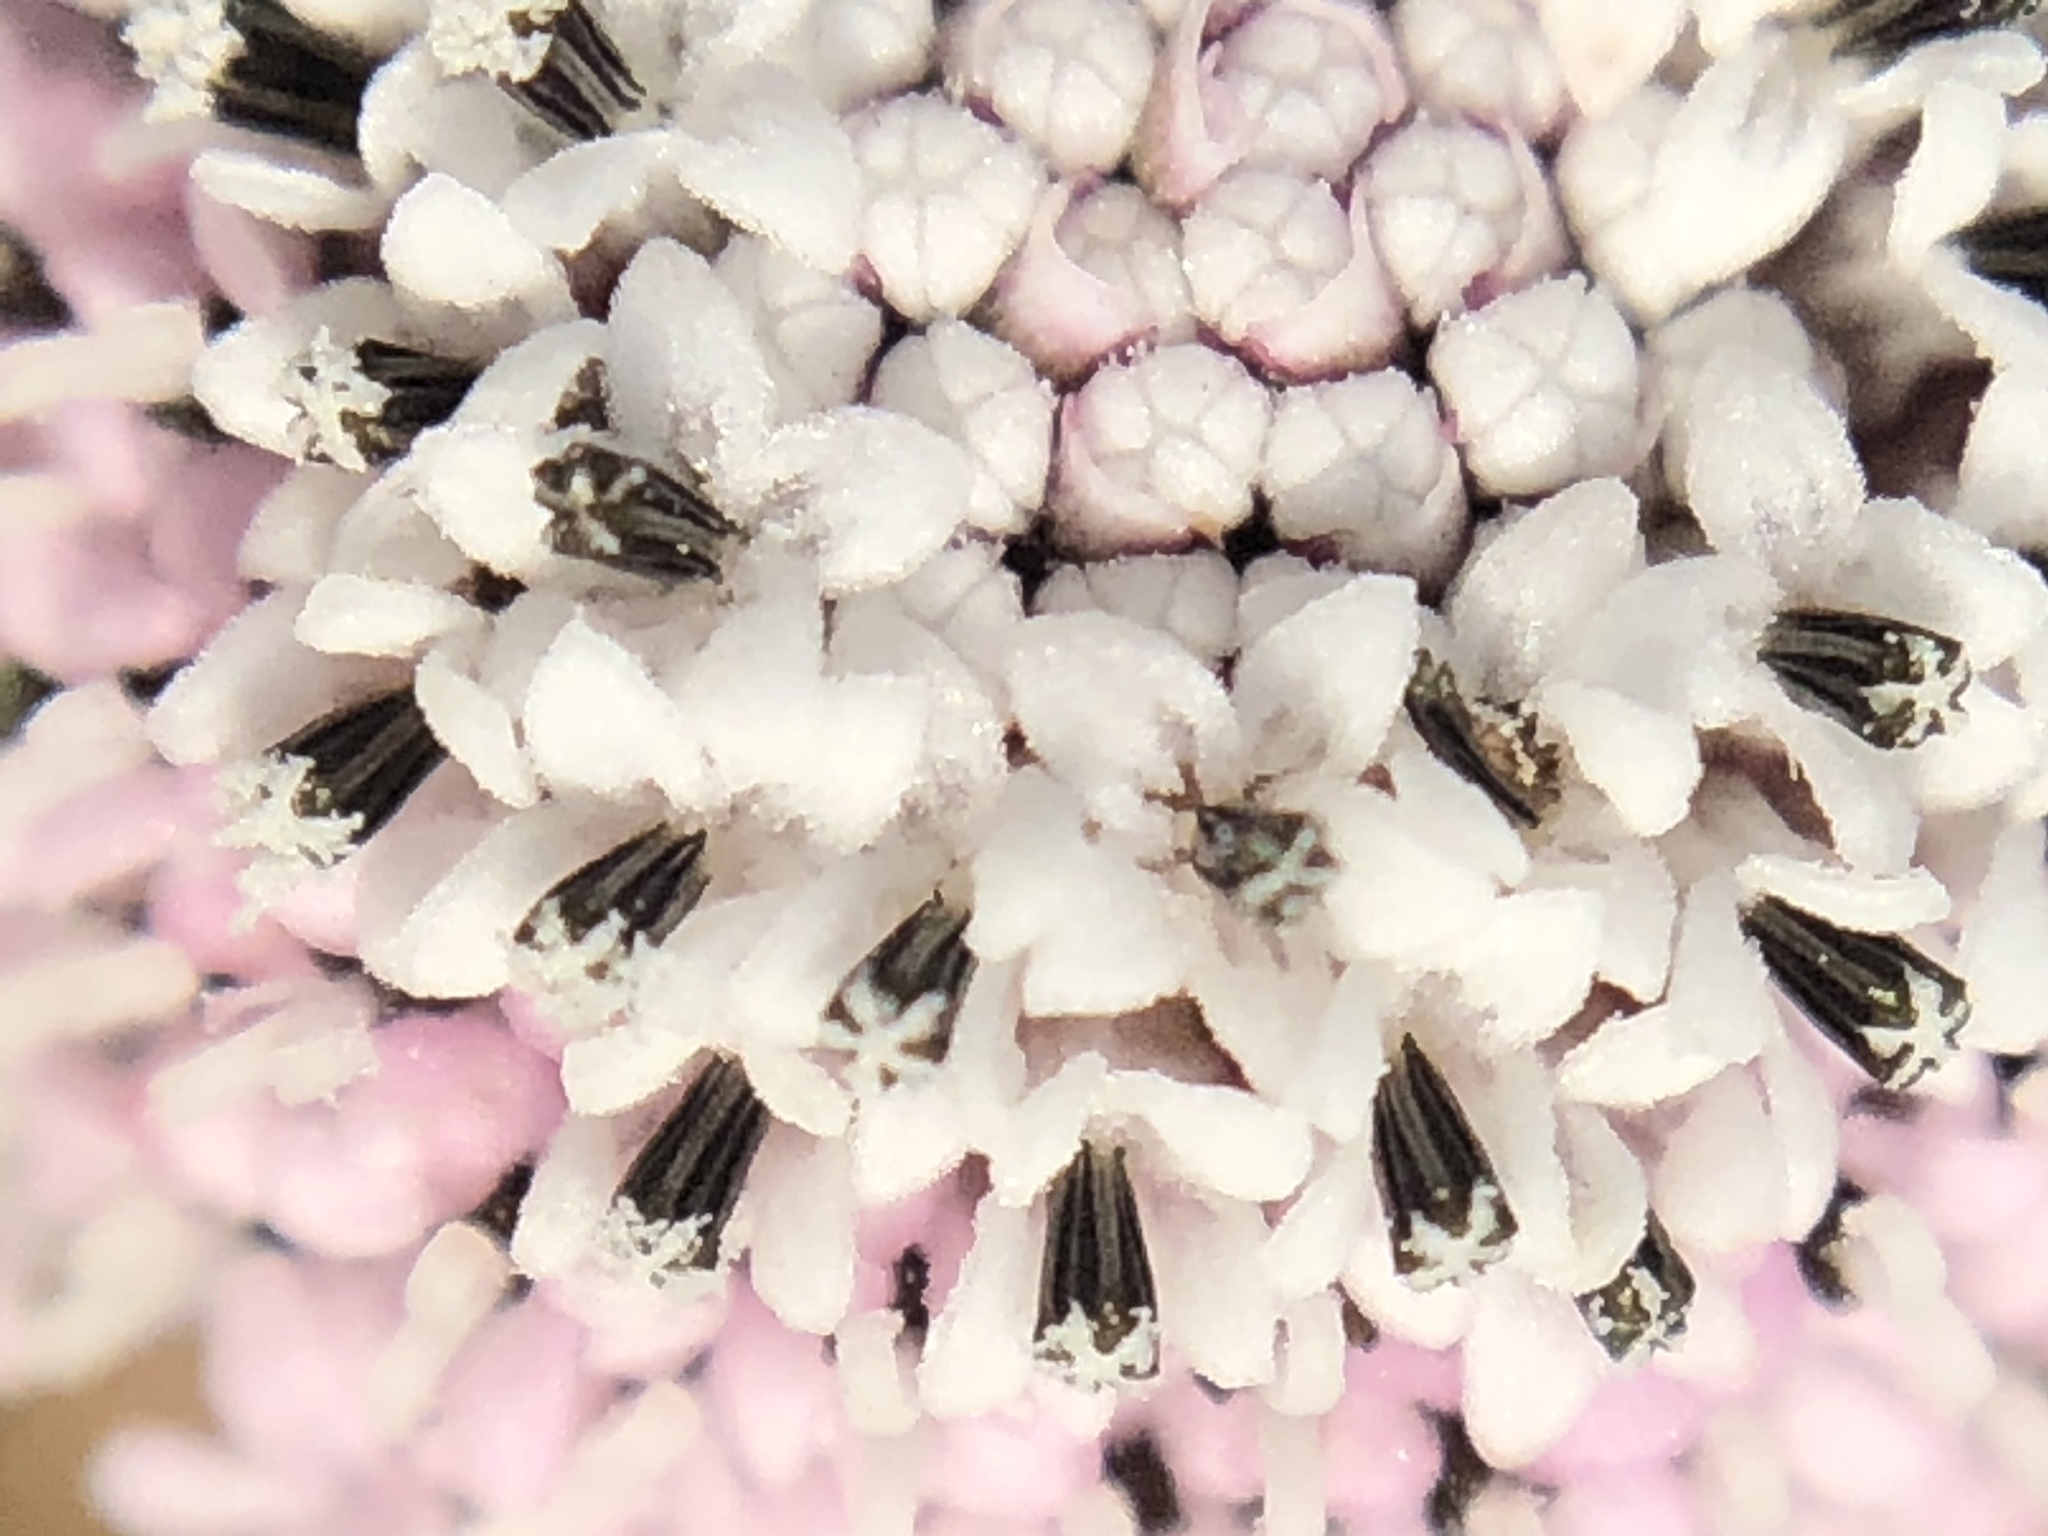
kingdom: Plantae
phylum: Tracheophyta
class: Magnoliopsida
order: Asterales
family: Asteraceae
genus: Spilanthes
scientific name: Spilanthes leiocarpa
